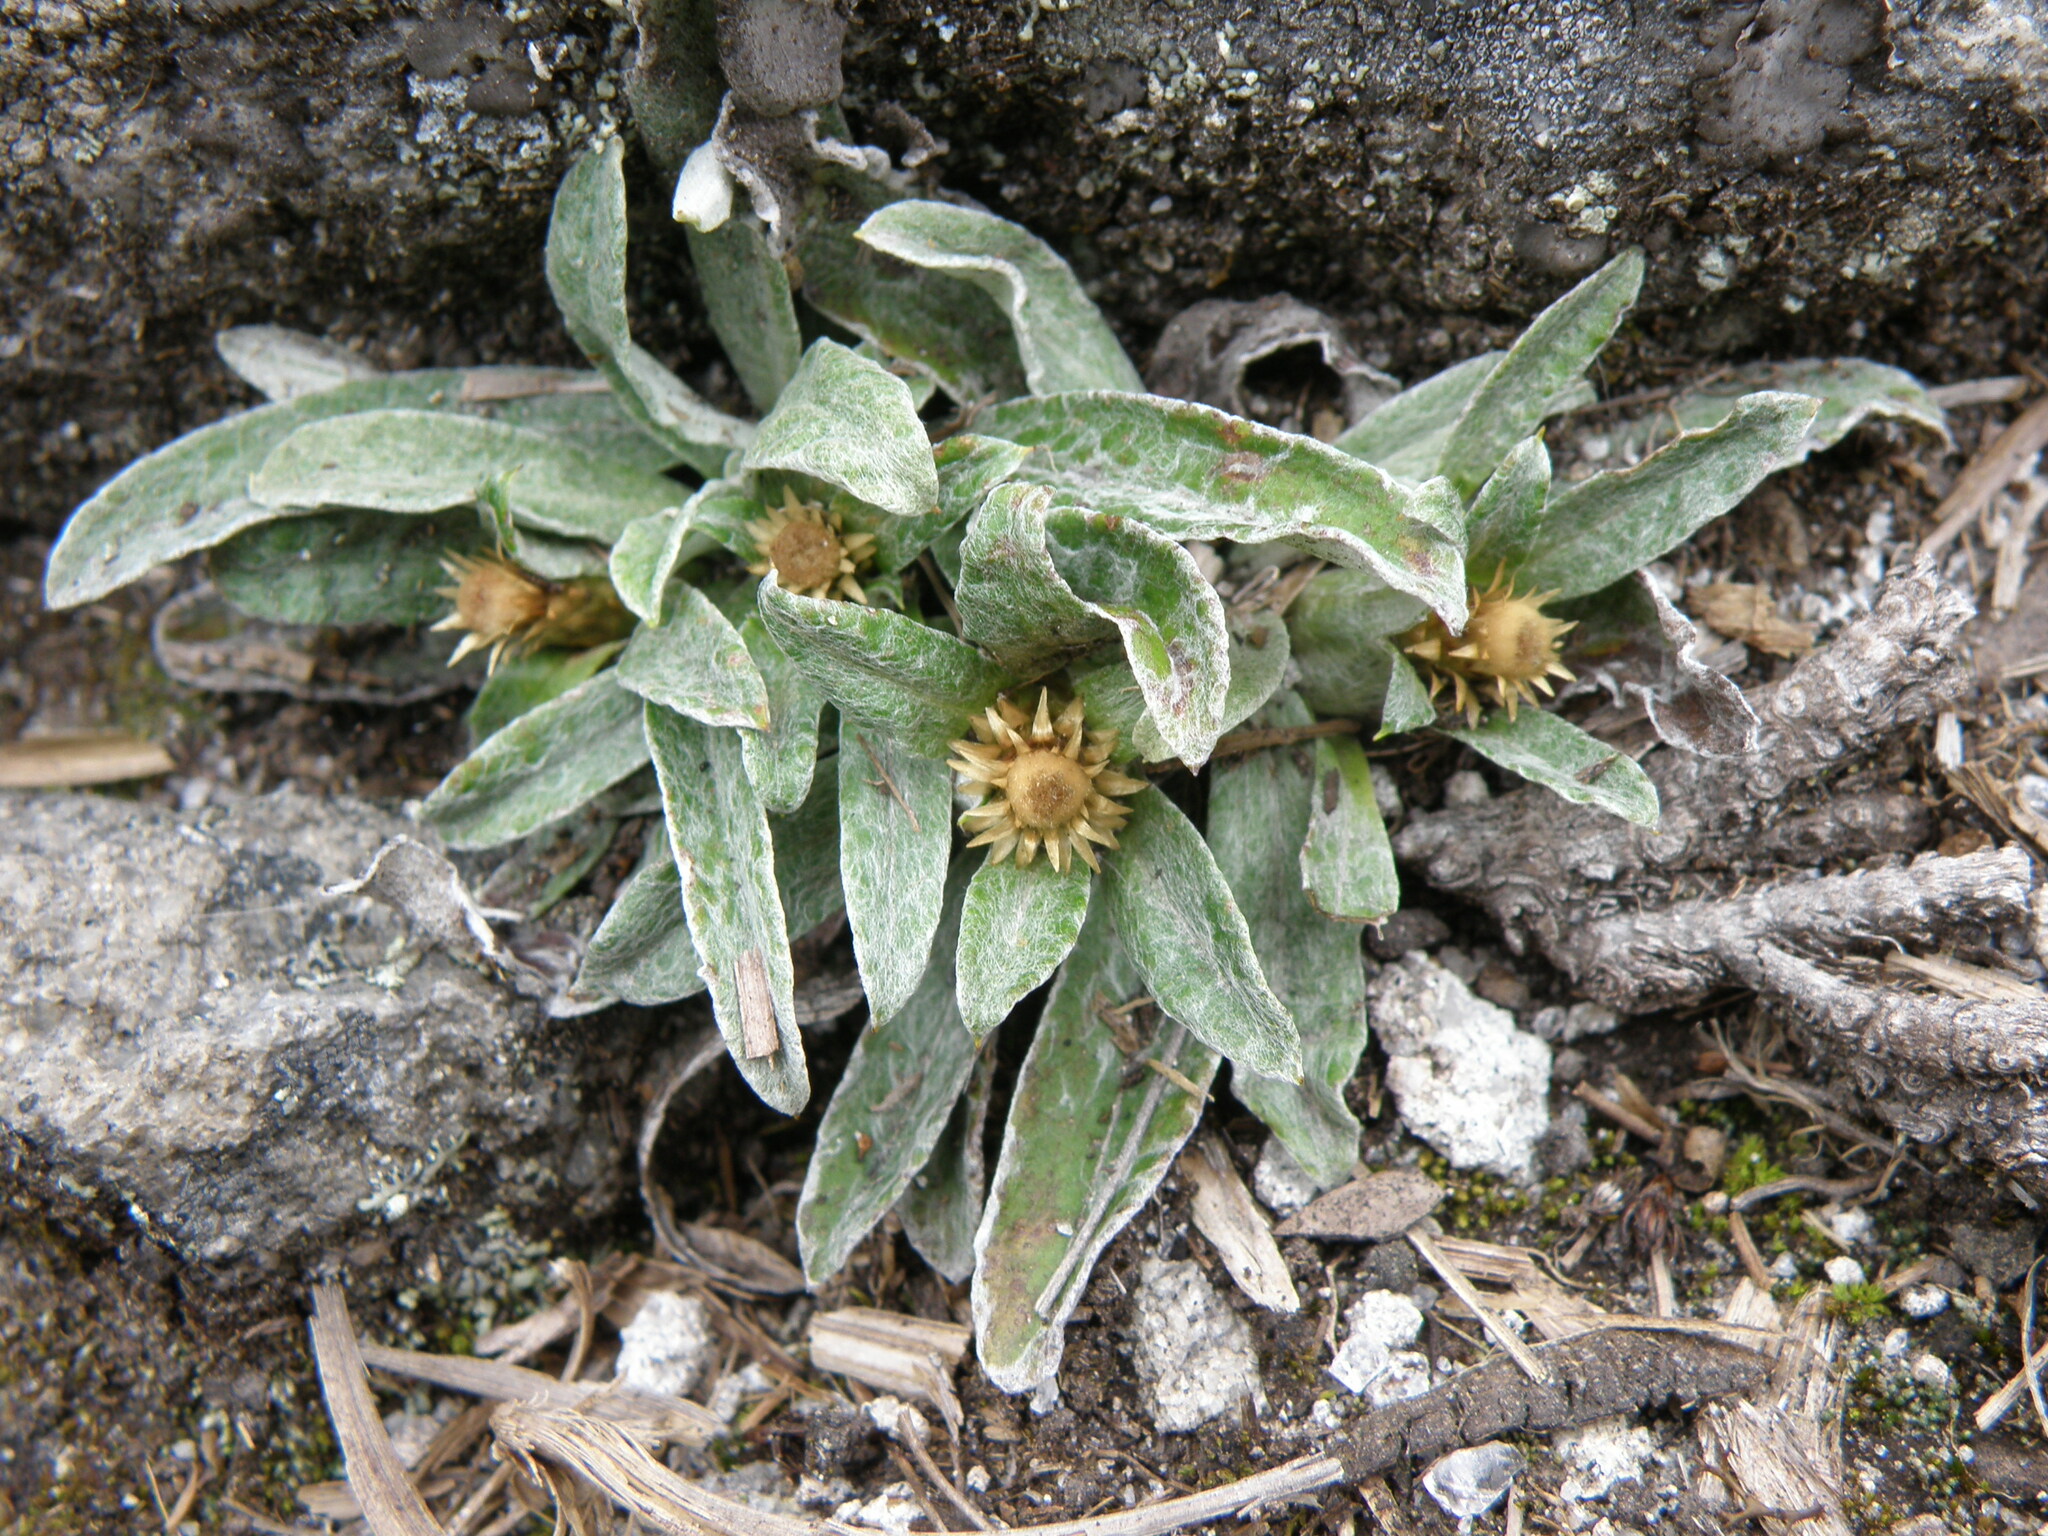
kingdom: Plantae
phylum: Tracheophyta
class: Magnoliopsida
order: Asterales
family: Asteraceae
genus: Mniodes
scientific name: Mniodes longifolia
